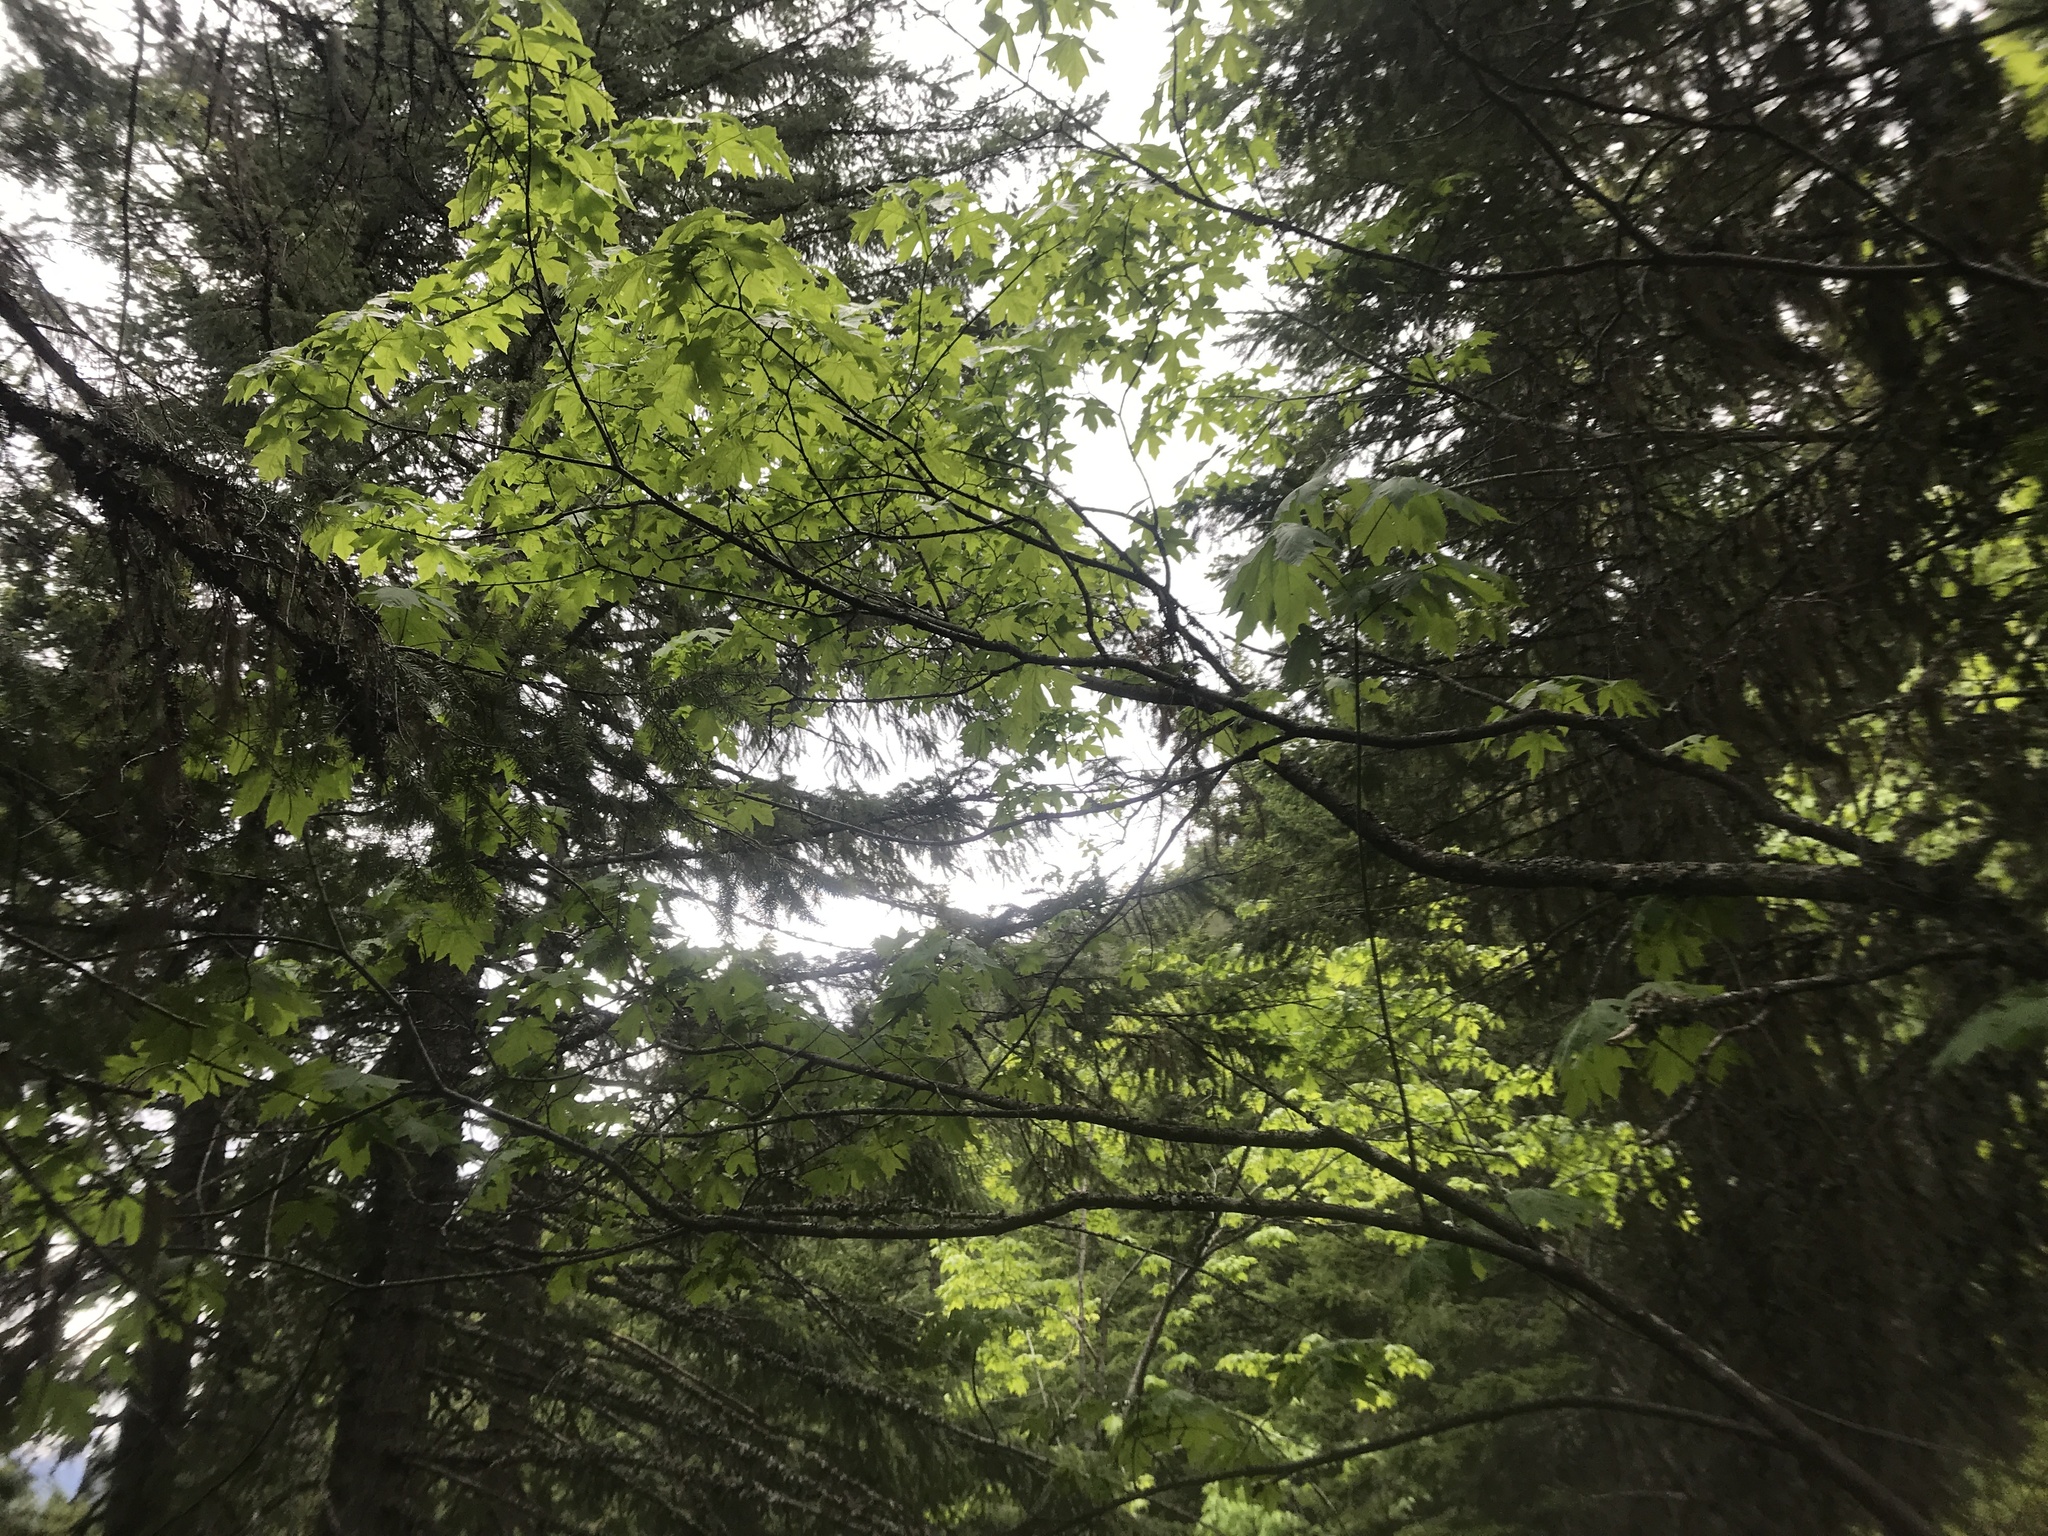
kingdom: Plantae
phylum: Tracheophyta
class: Magnoliopsida
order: Sapindales
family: Sapindaceae
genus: Acer
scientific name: Acer macrophyllum
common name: Oregon maple
